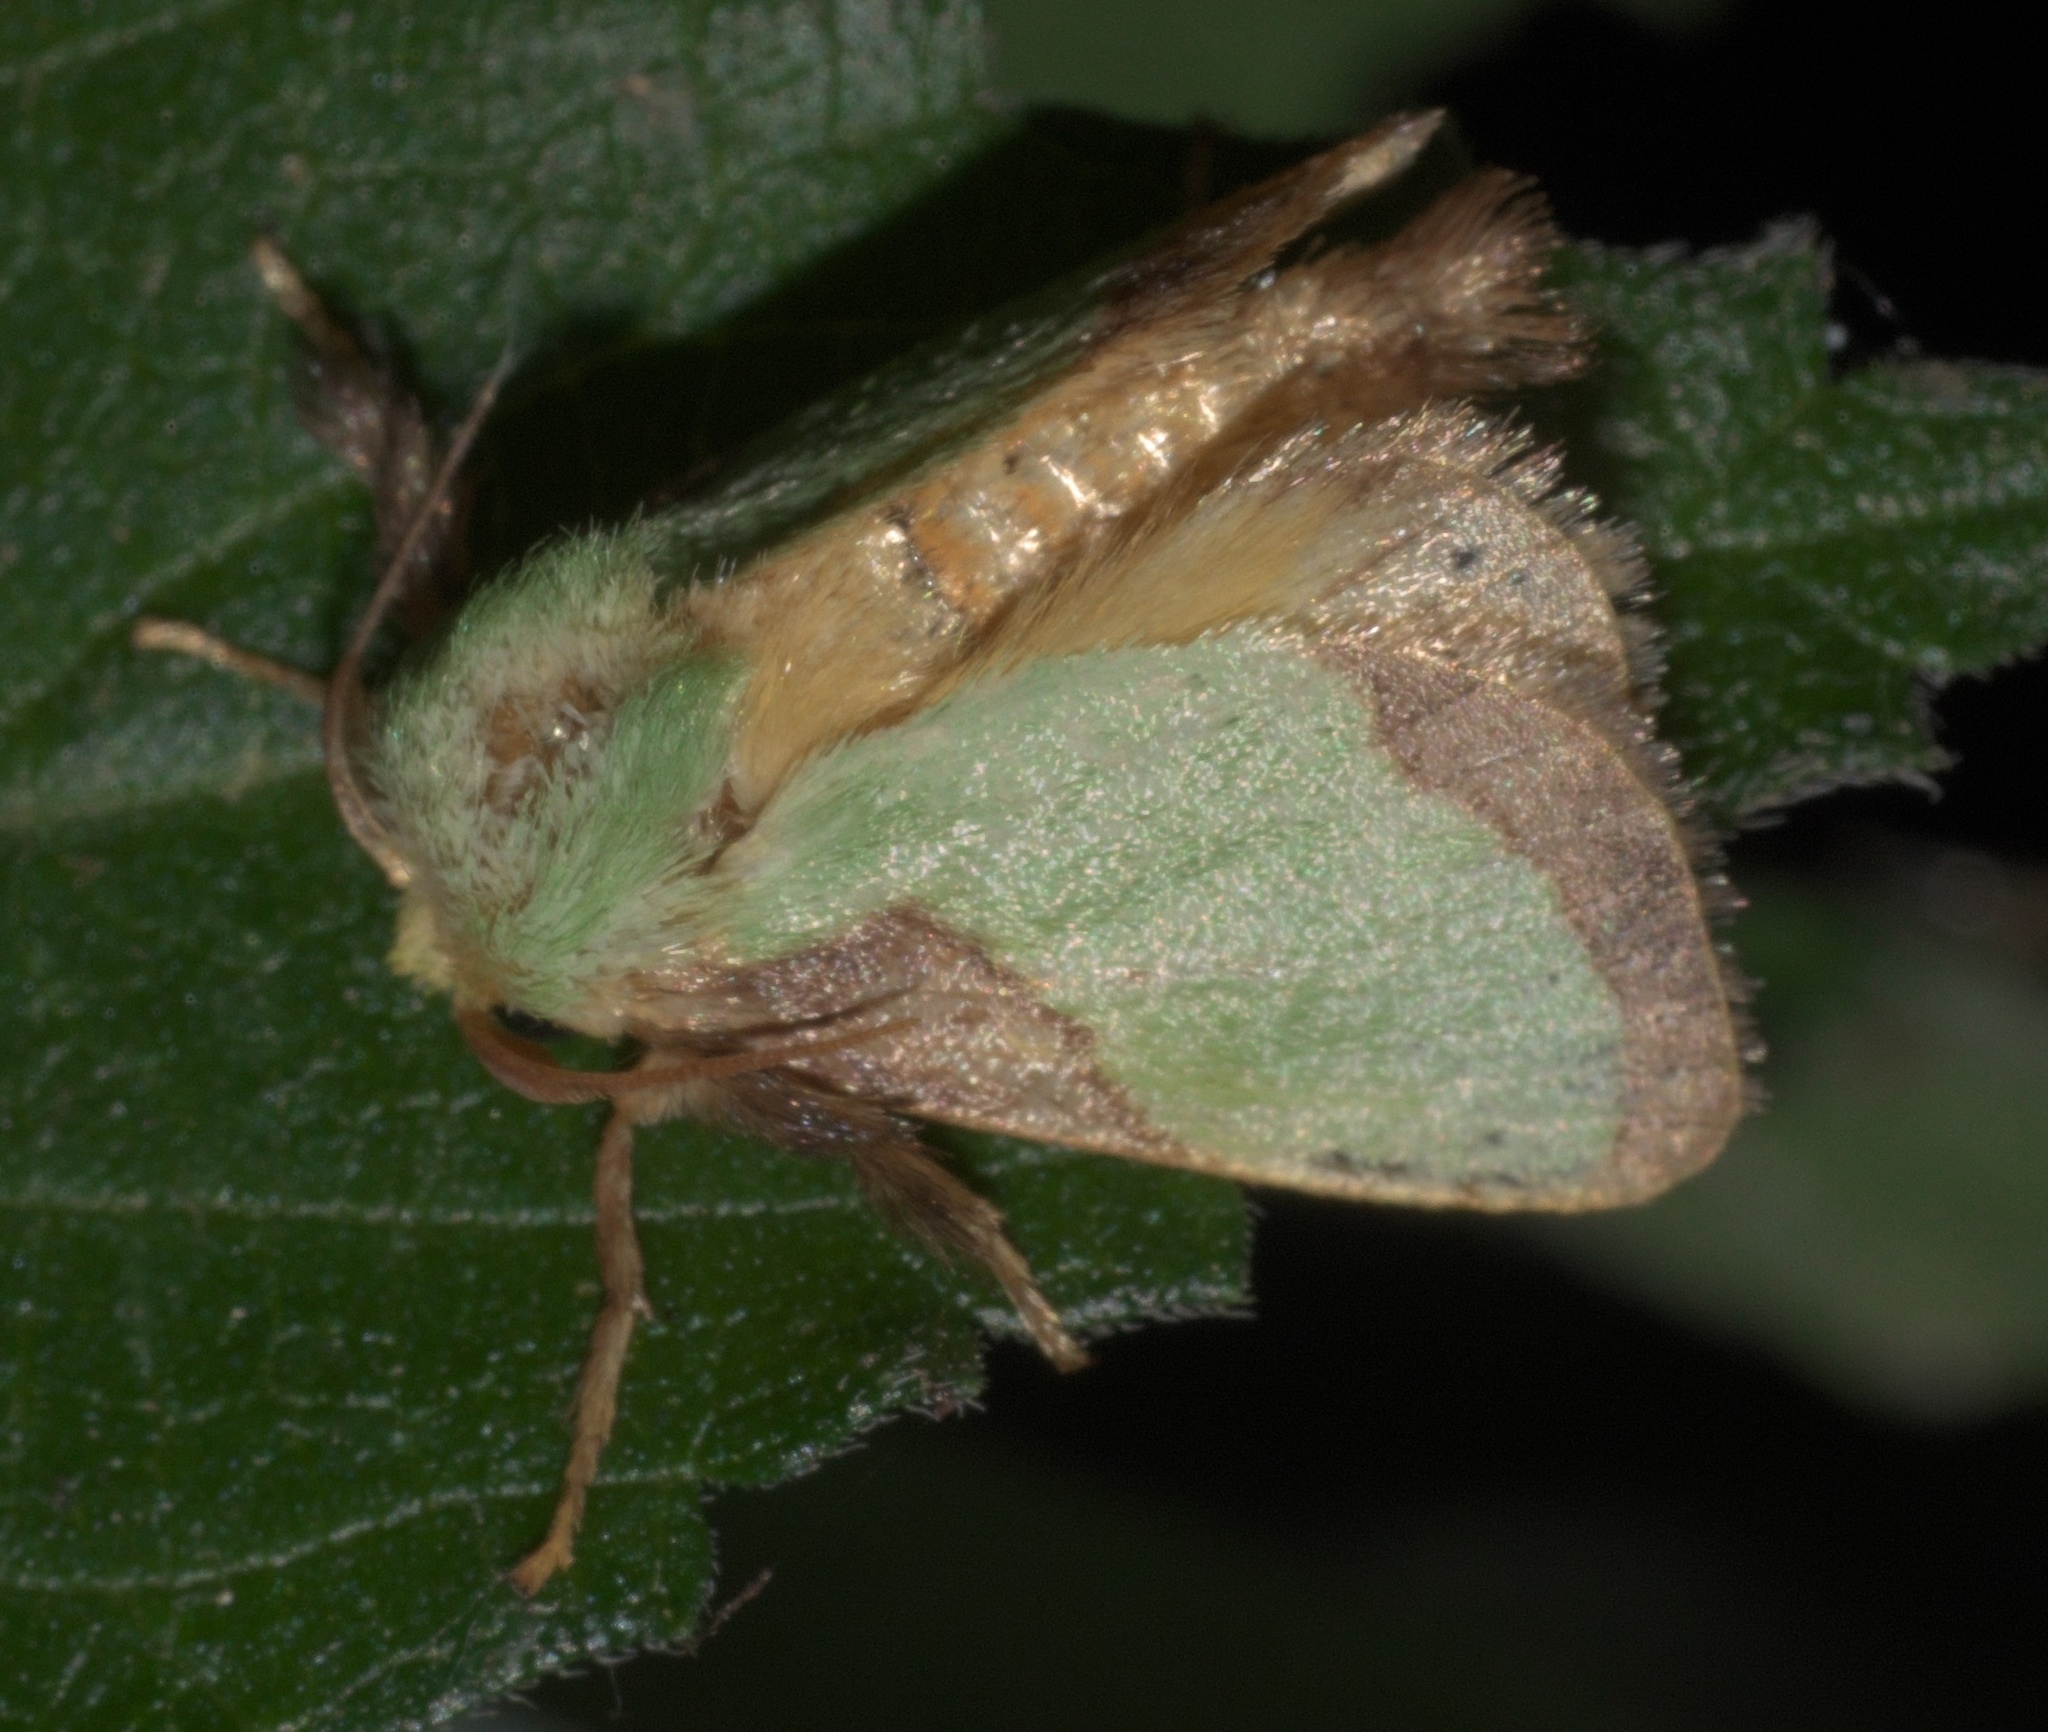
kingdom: Animalia
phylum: Arthropoda
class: Insecta
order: Lepidoptera
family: Limacodidae
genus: Parasa
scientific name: Parasa indetermina
